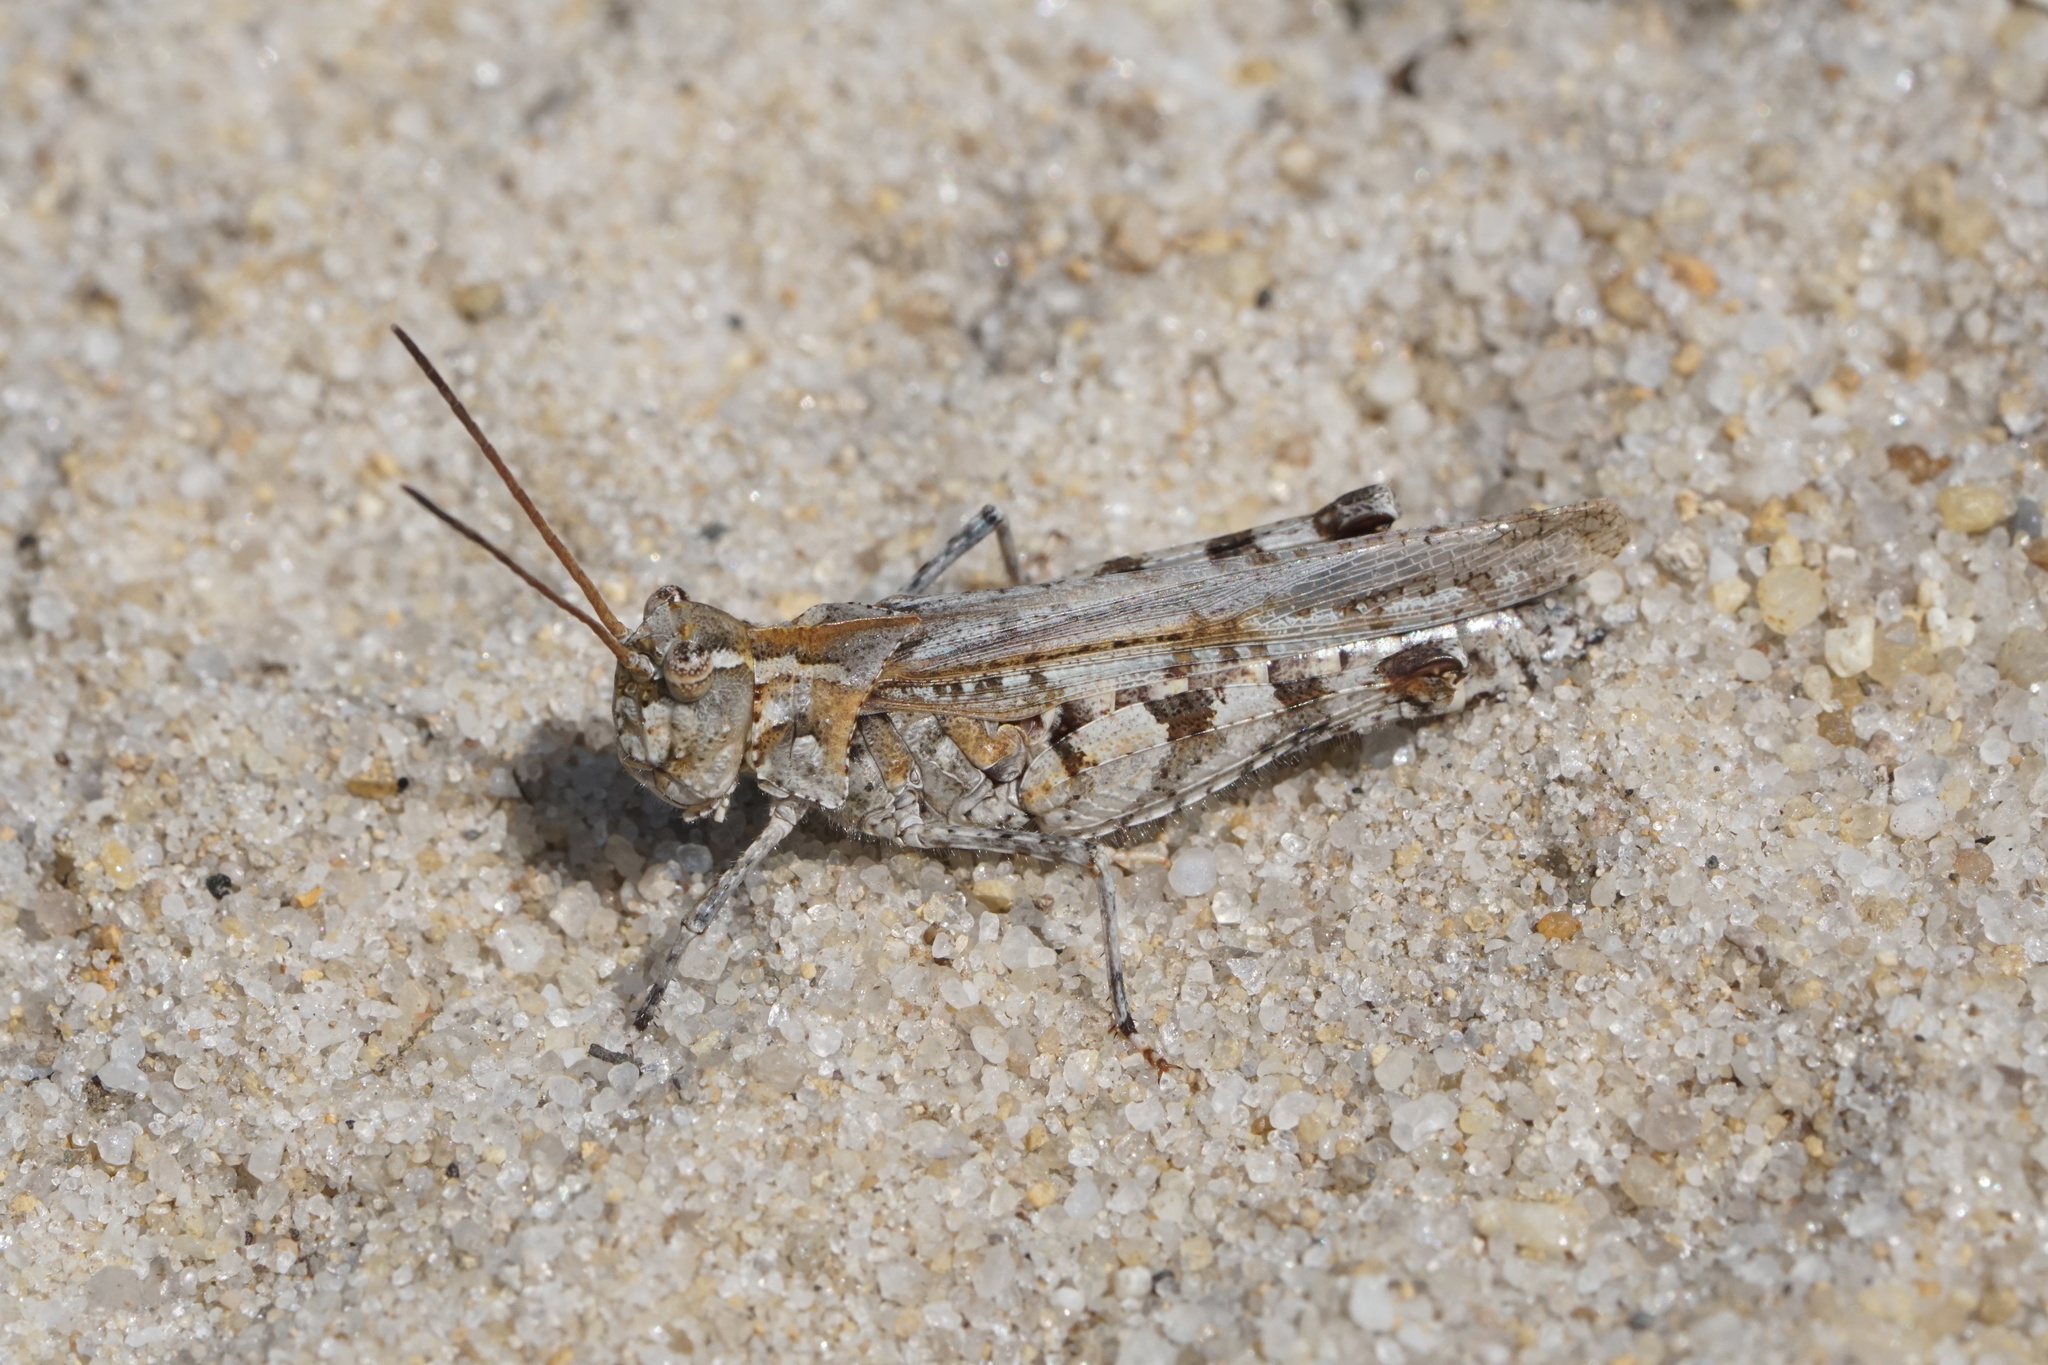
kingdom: Animalia
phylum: Arthropoda
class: Insecta
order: Orthoptera
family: Acrididae
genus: Psinidia
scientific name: Psinidia fenestralis
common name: Long-horned locust
